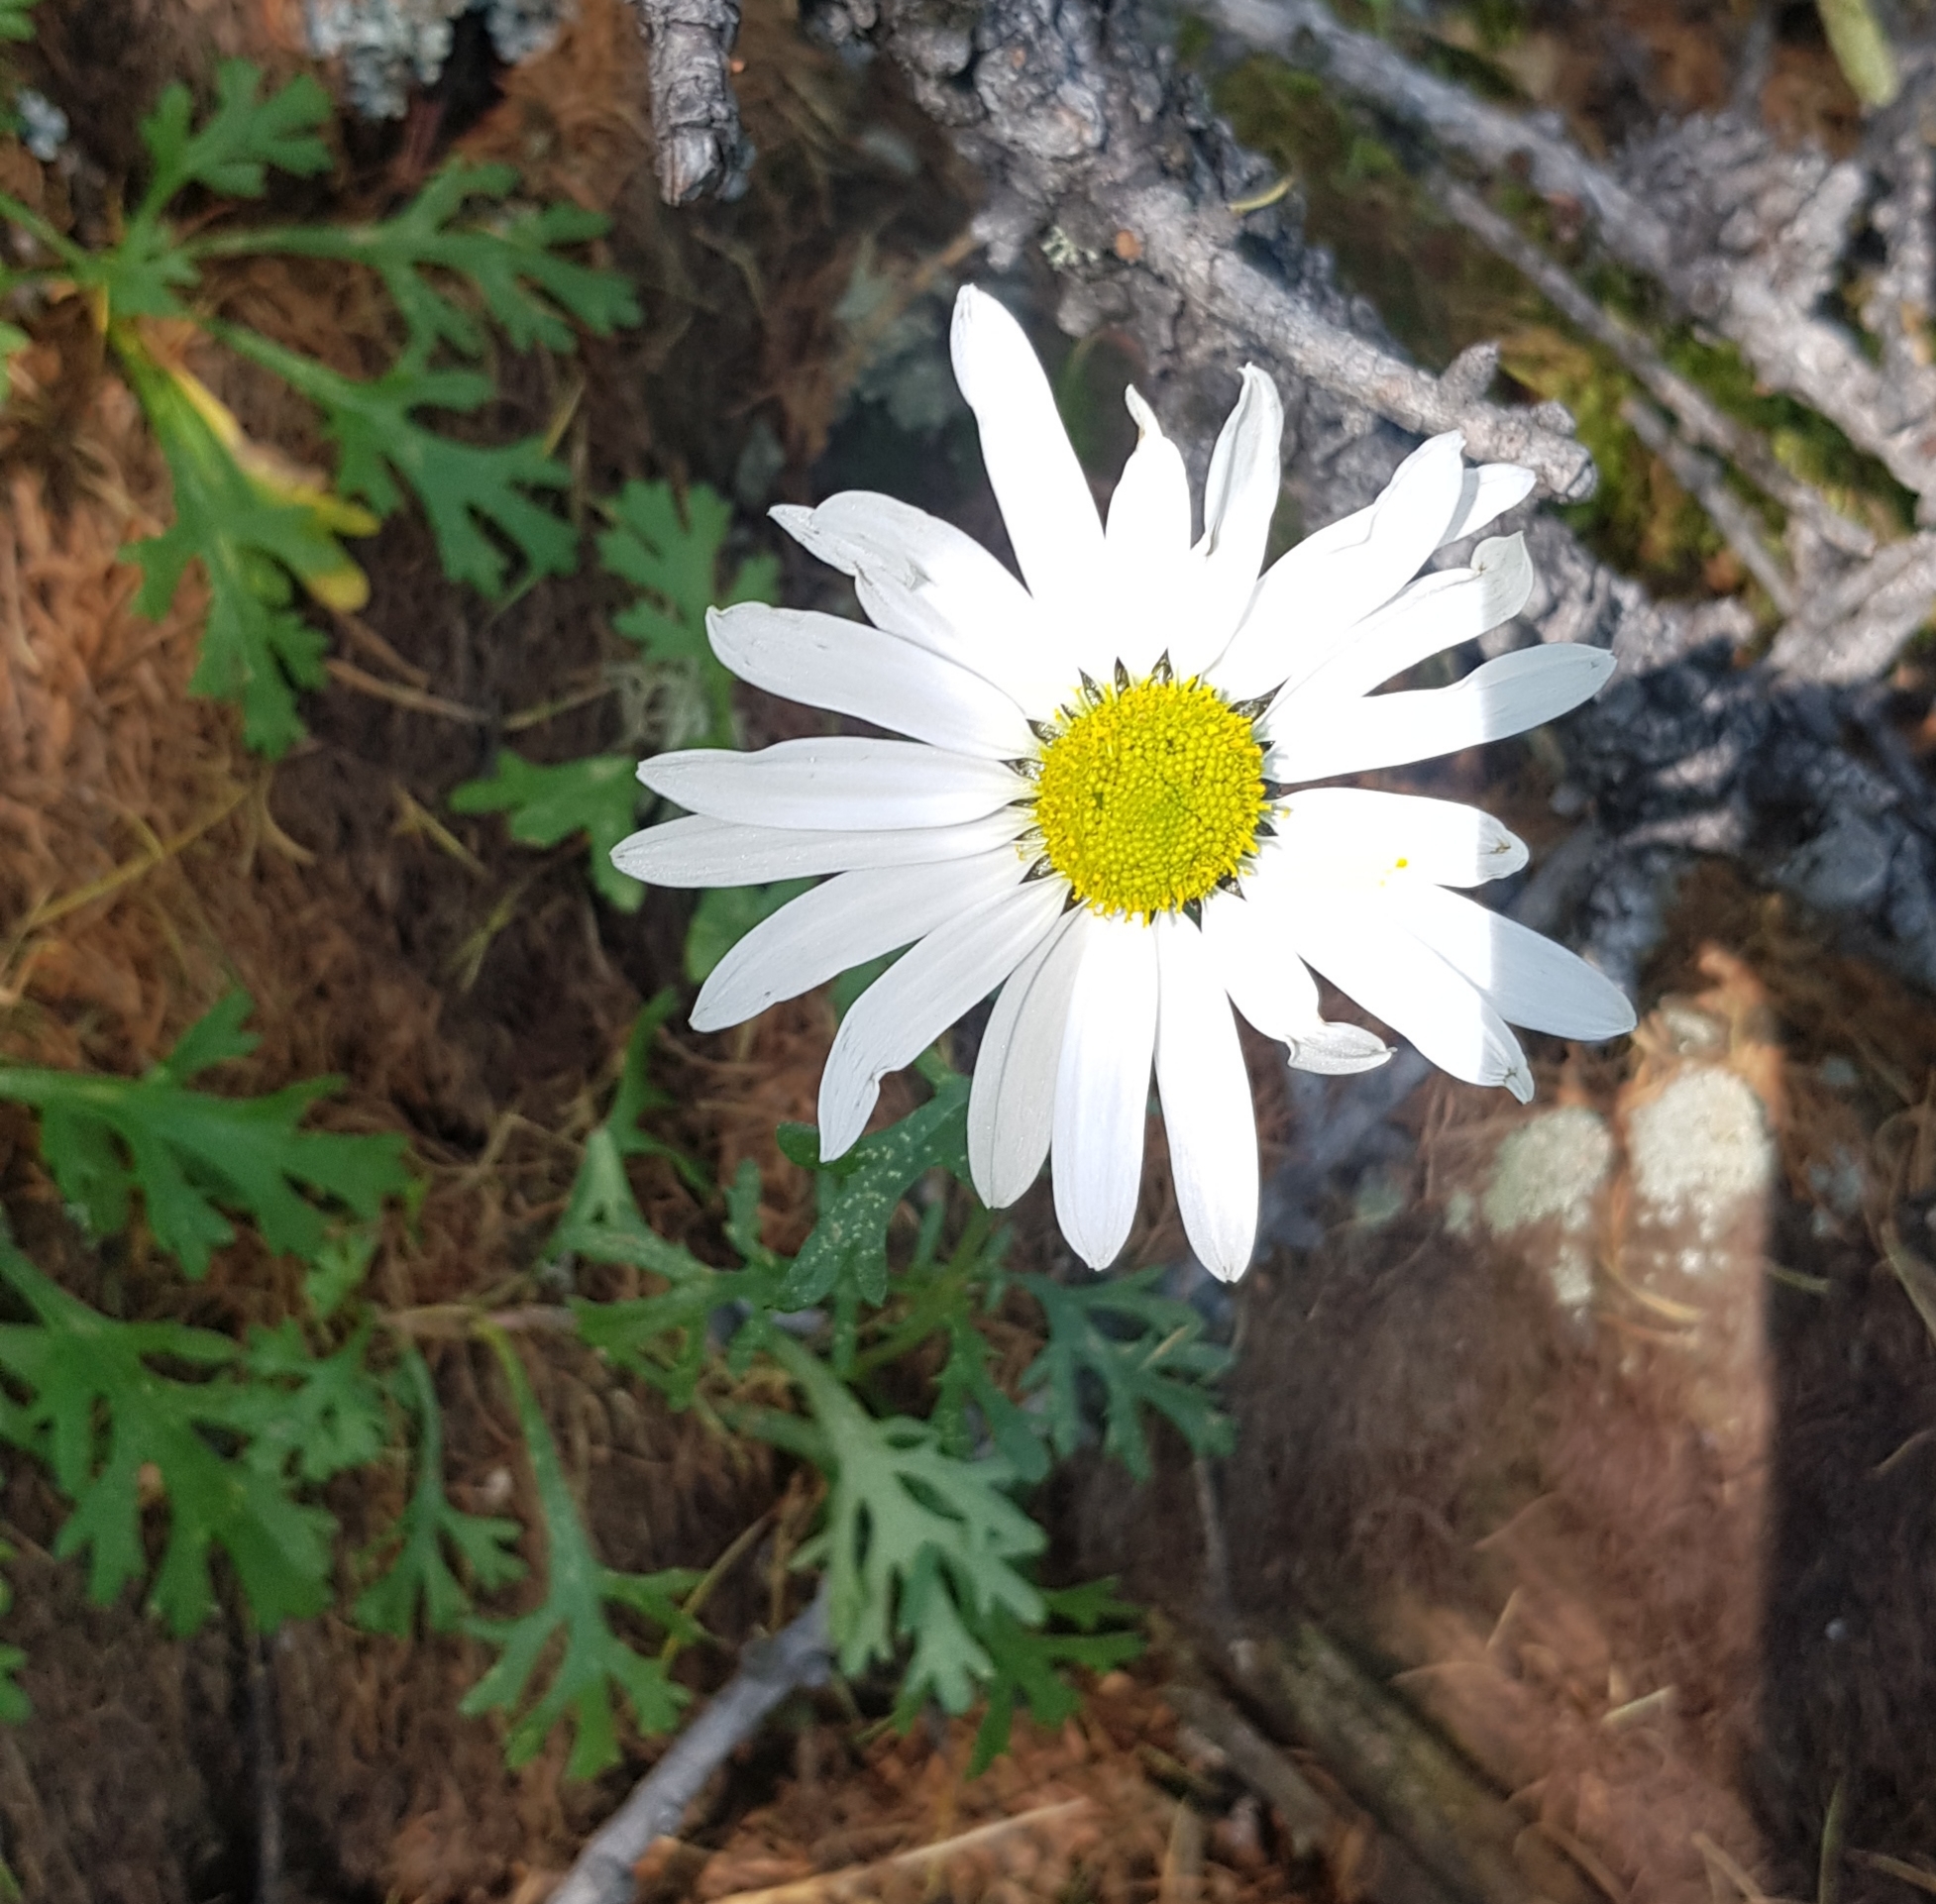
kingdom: Plantae
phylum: Tracheophyta
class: Magnoliopsida
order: Asterales
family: Asteraceae
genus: Chrysanthemum
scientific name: Chrysanthemum zawadzkii
